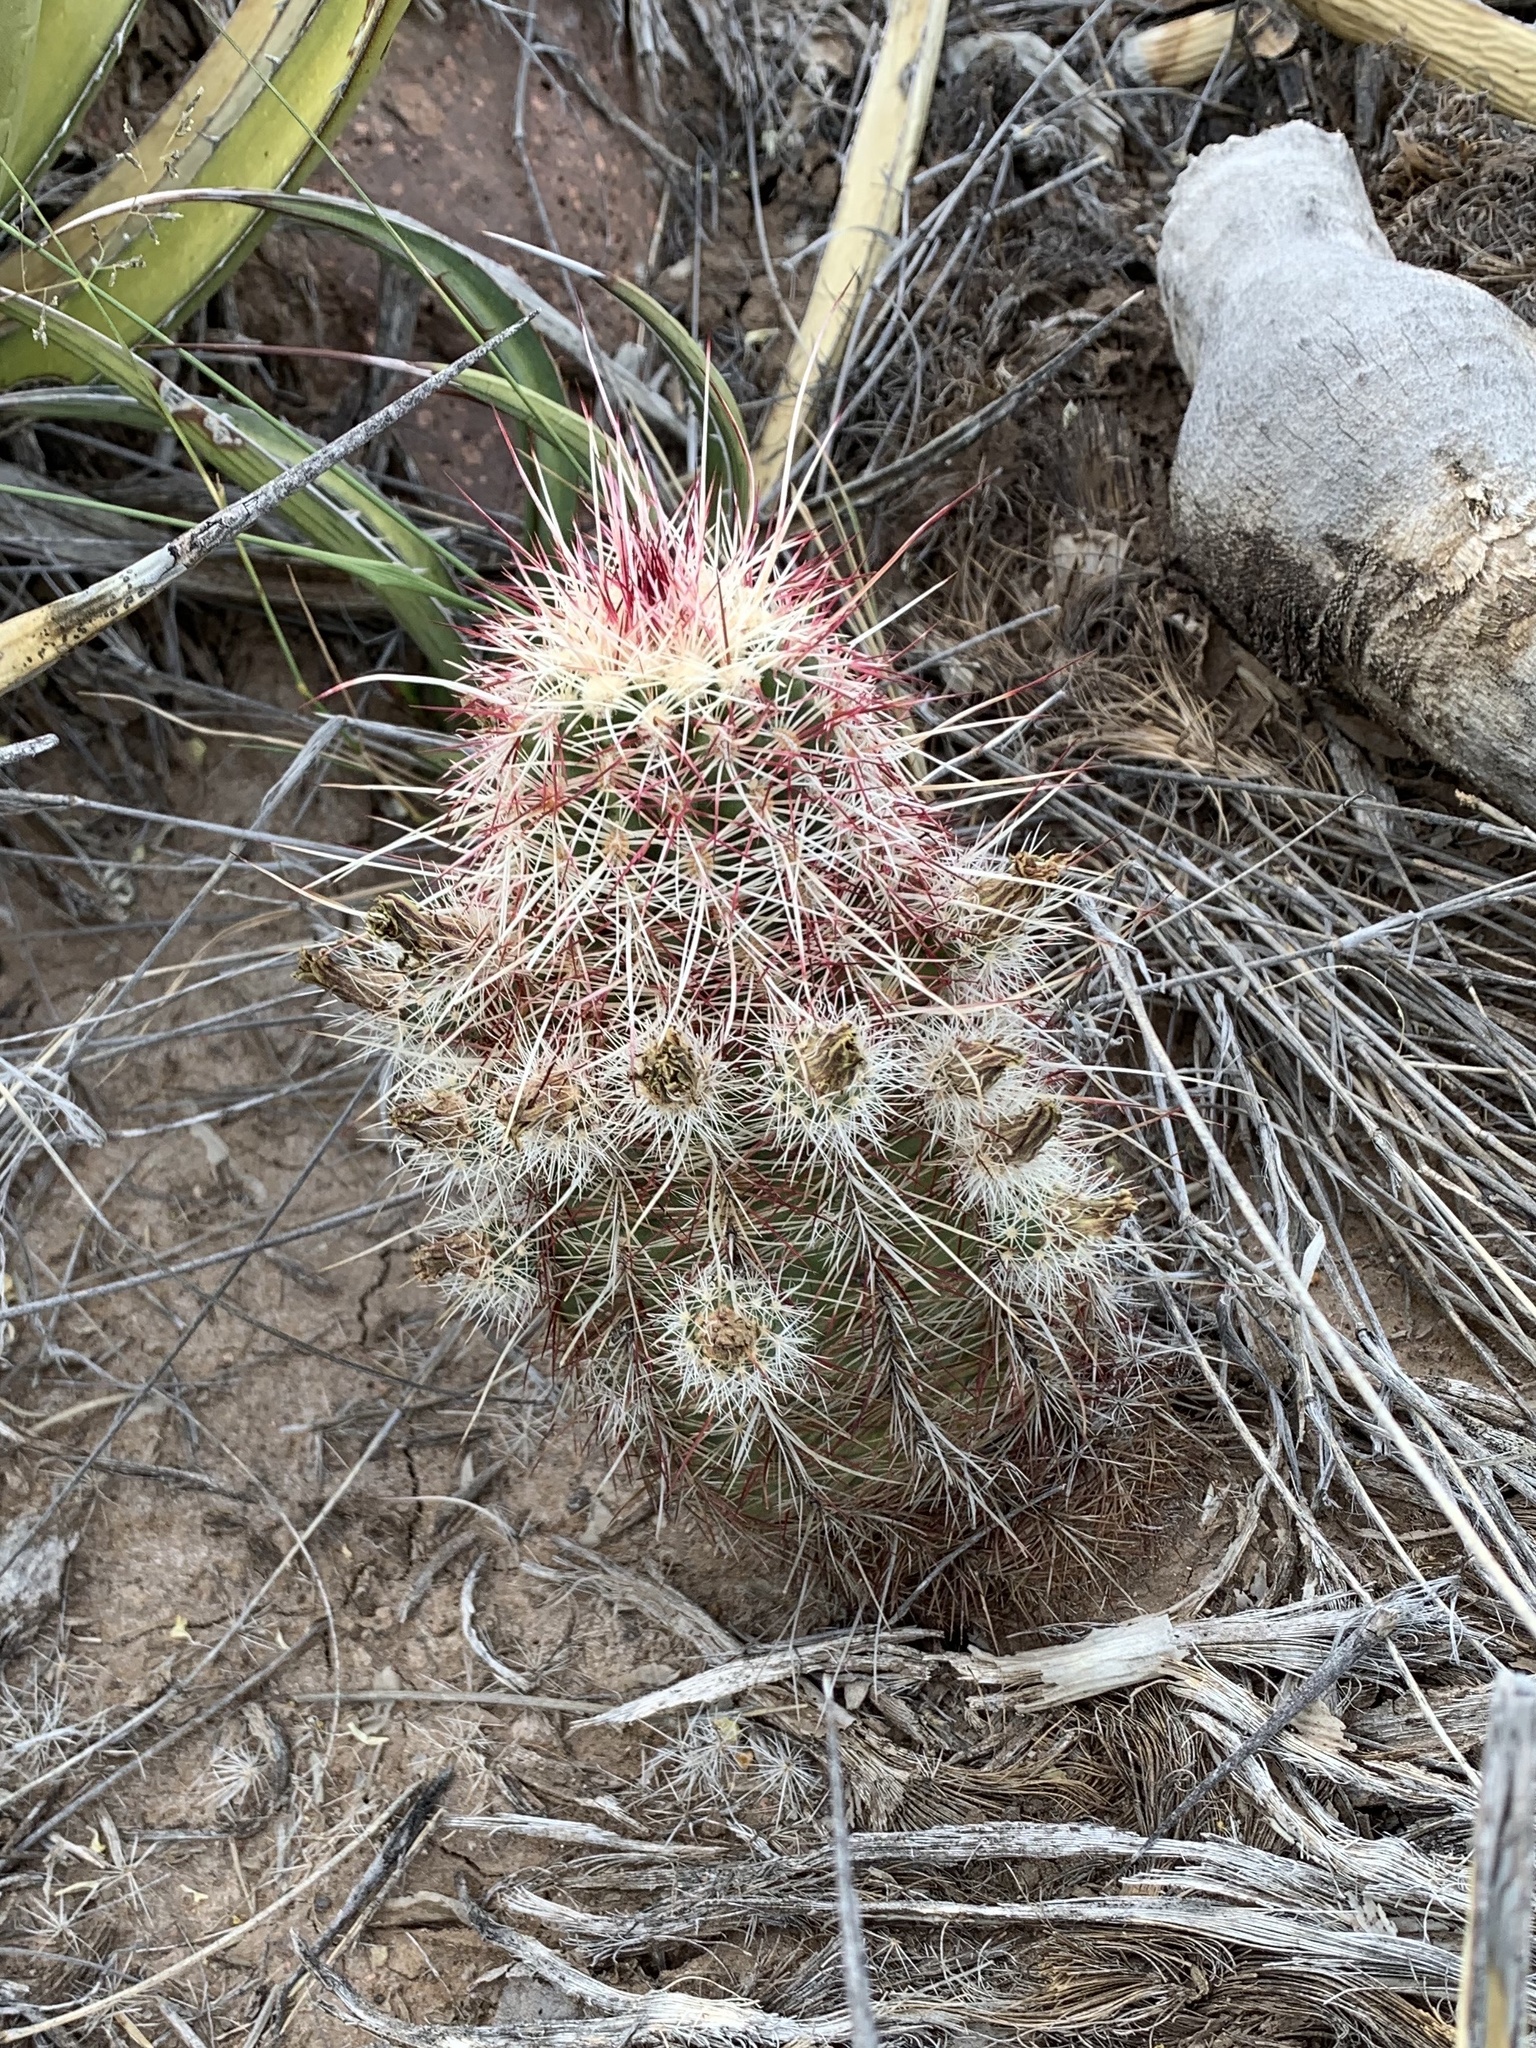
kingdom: Plantae
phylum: Tracheophyta
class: Magnoliopsida
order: Caryophyllales
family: Cactaceae
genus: Echinocereus
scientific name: Echinocereus viridiflorus
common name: Nylon hedgehog cactus
